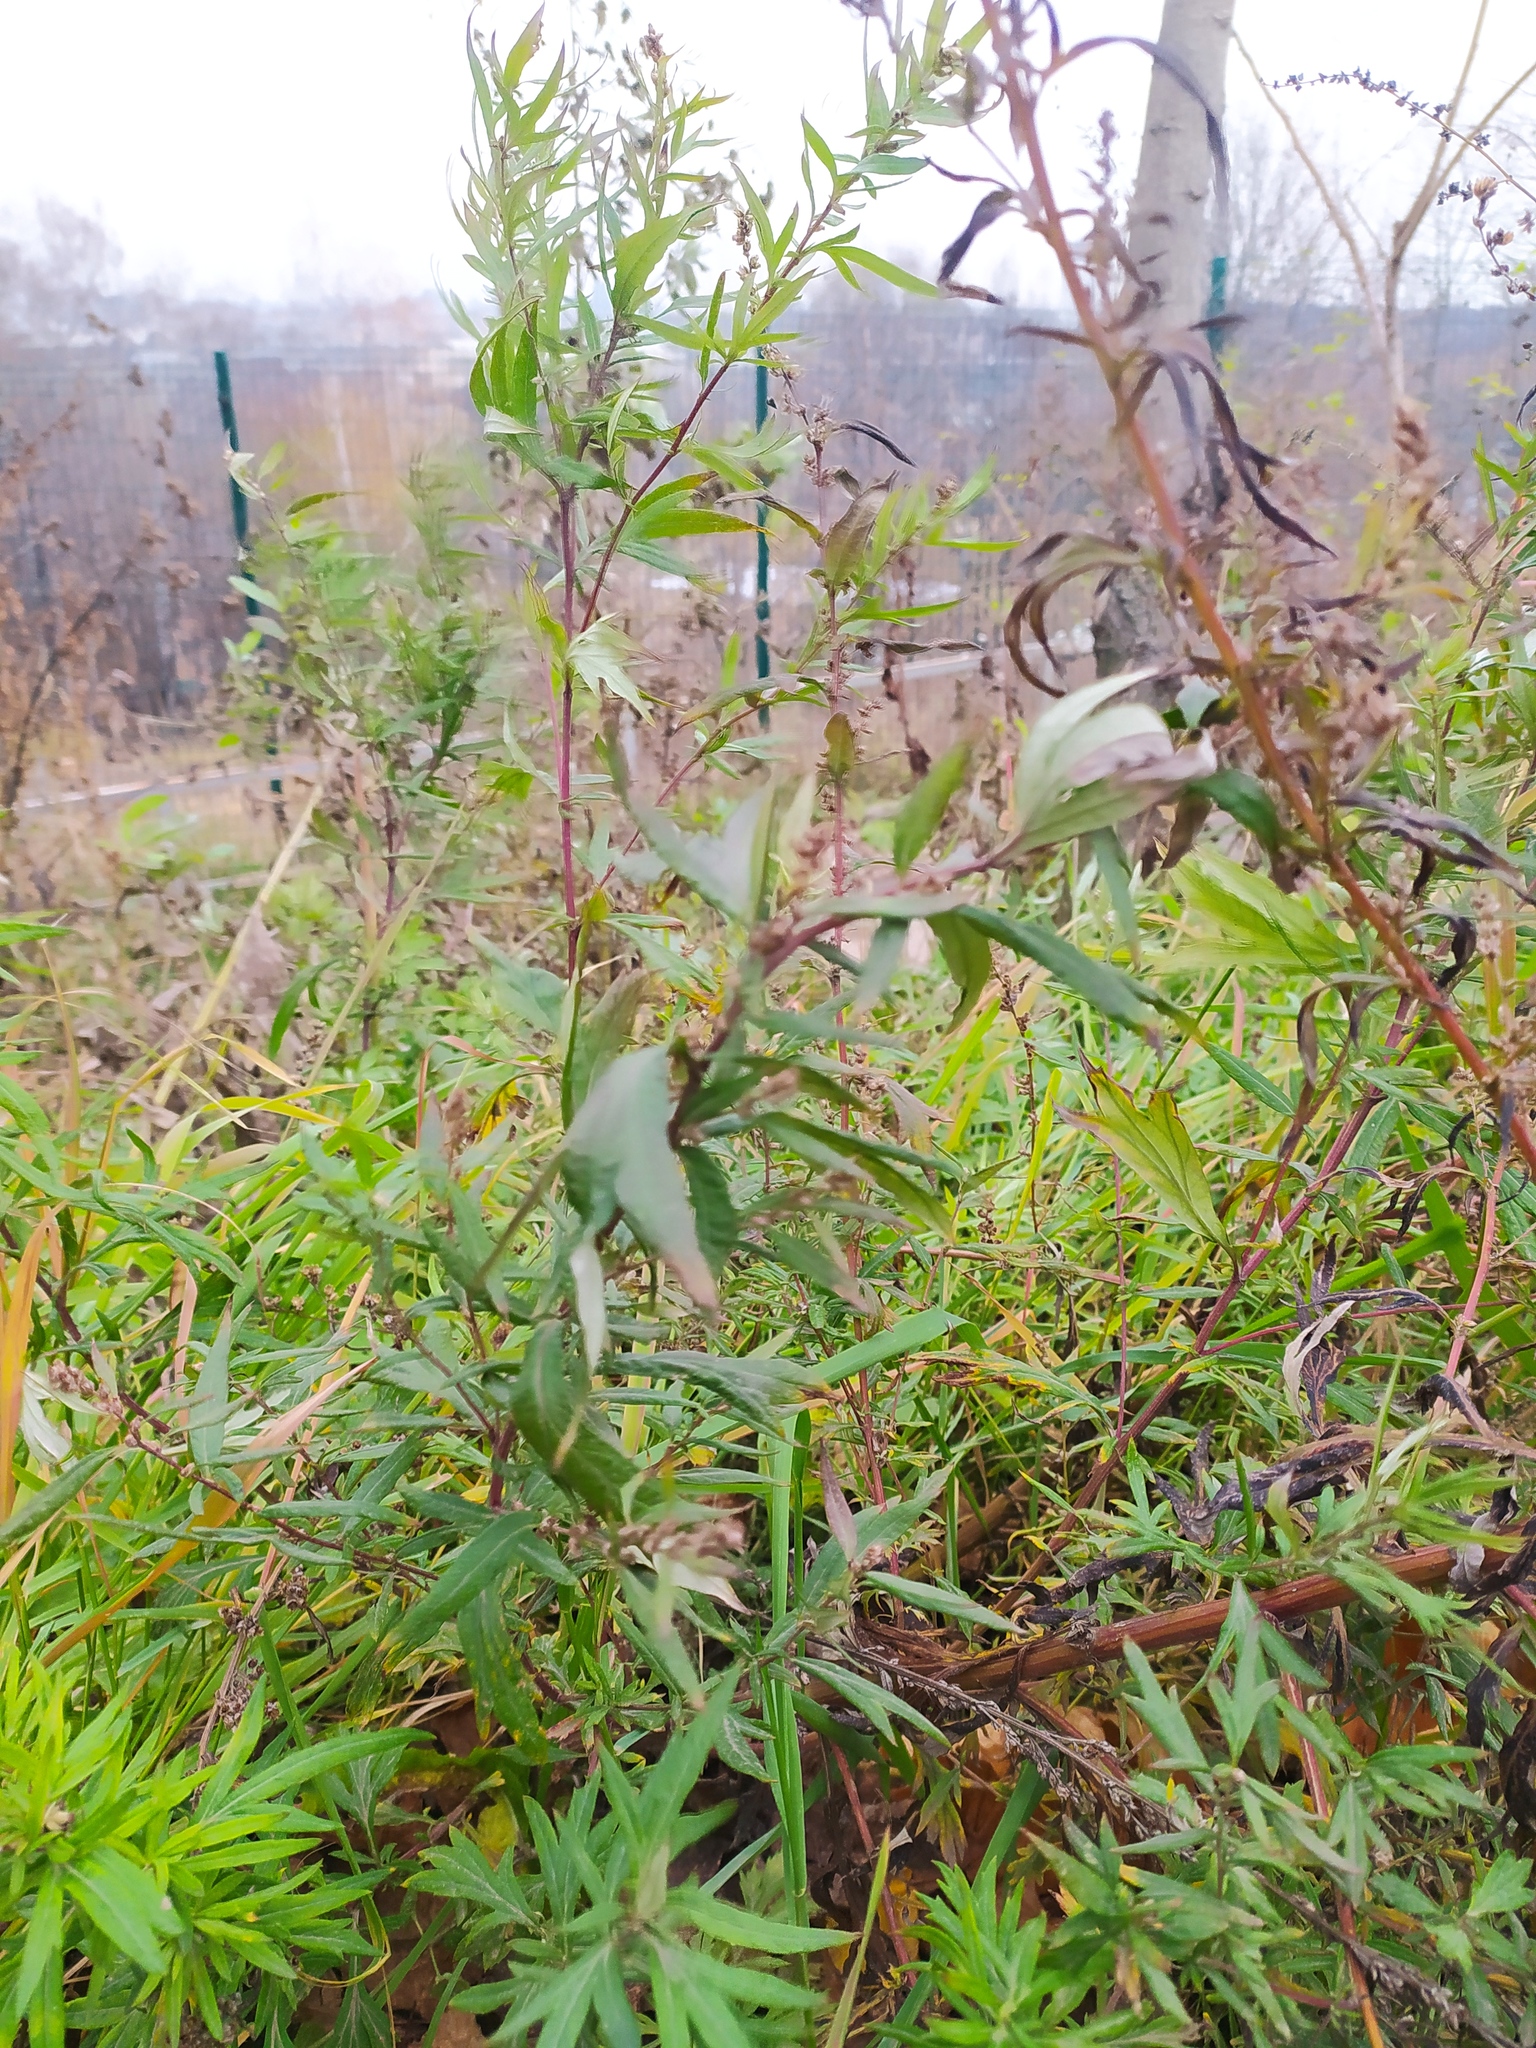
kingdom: Plantae
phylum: Tracheophyta
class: Magnoliopsida
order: Asterales
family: Asteraceae
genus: Artemisia
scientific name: Artemisia vulgaris
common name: Mugwort
